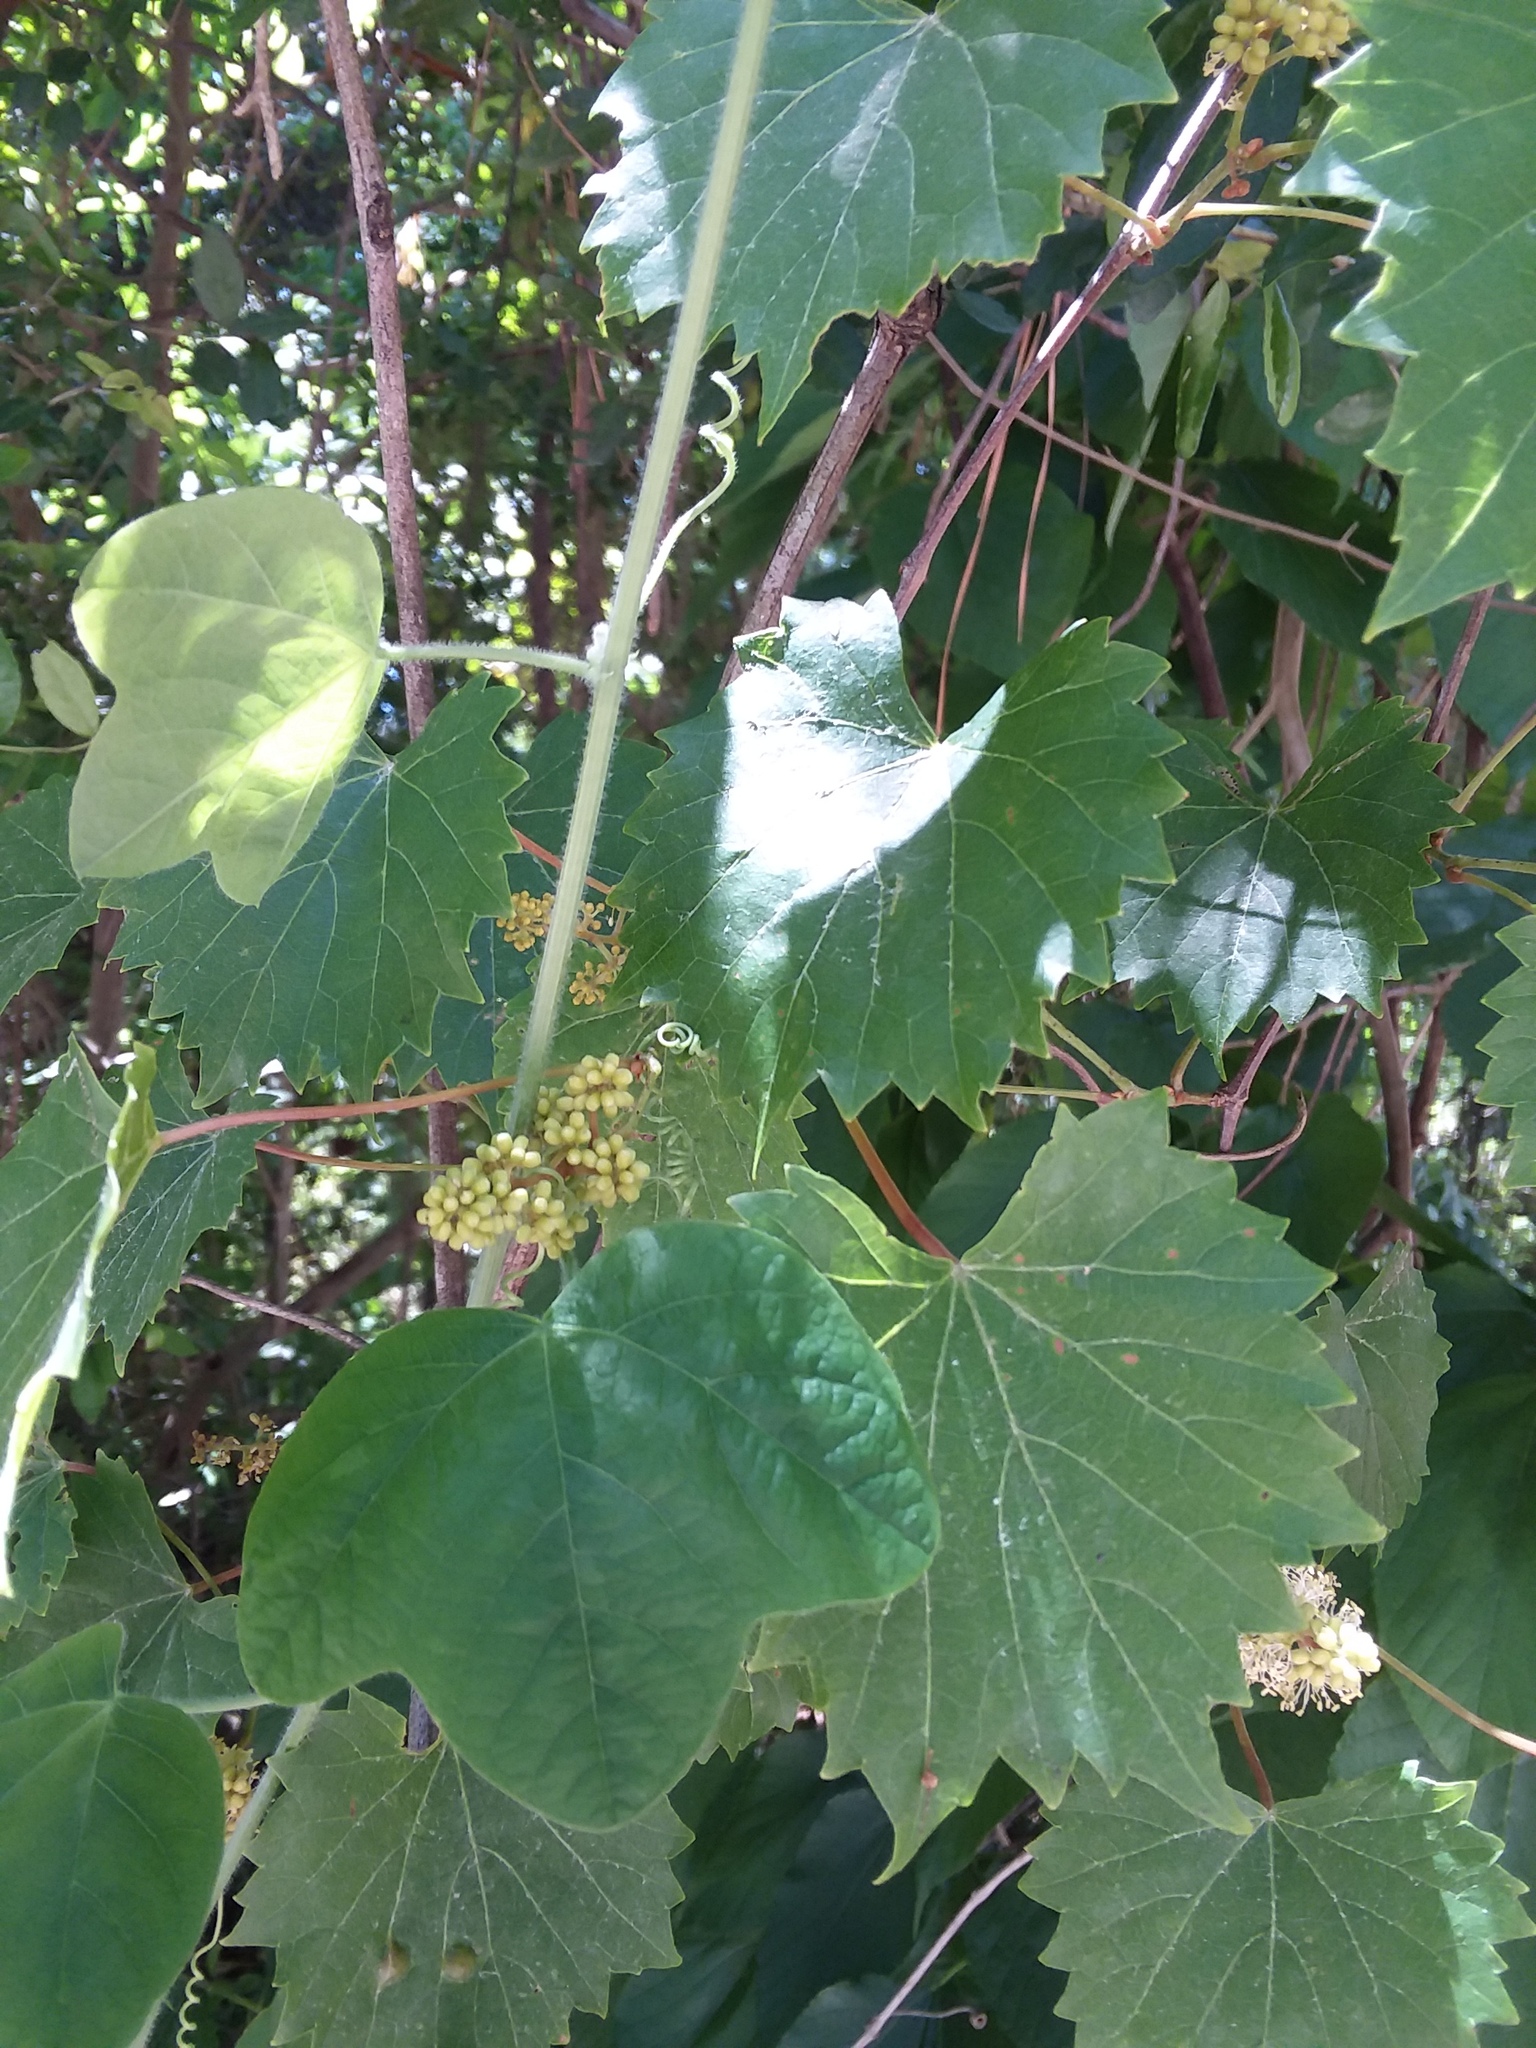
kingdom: Plantae
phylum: Tracheophyta
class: Magnoliopsida
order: Malpighiales
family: Passifloraceae
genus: Passiflora
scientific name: Passiflora lutea
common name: Yellow passionflower
